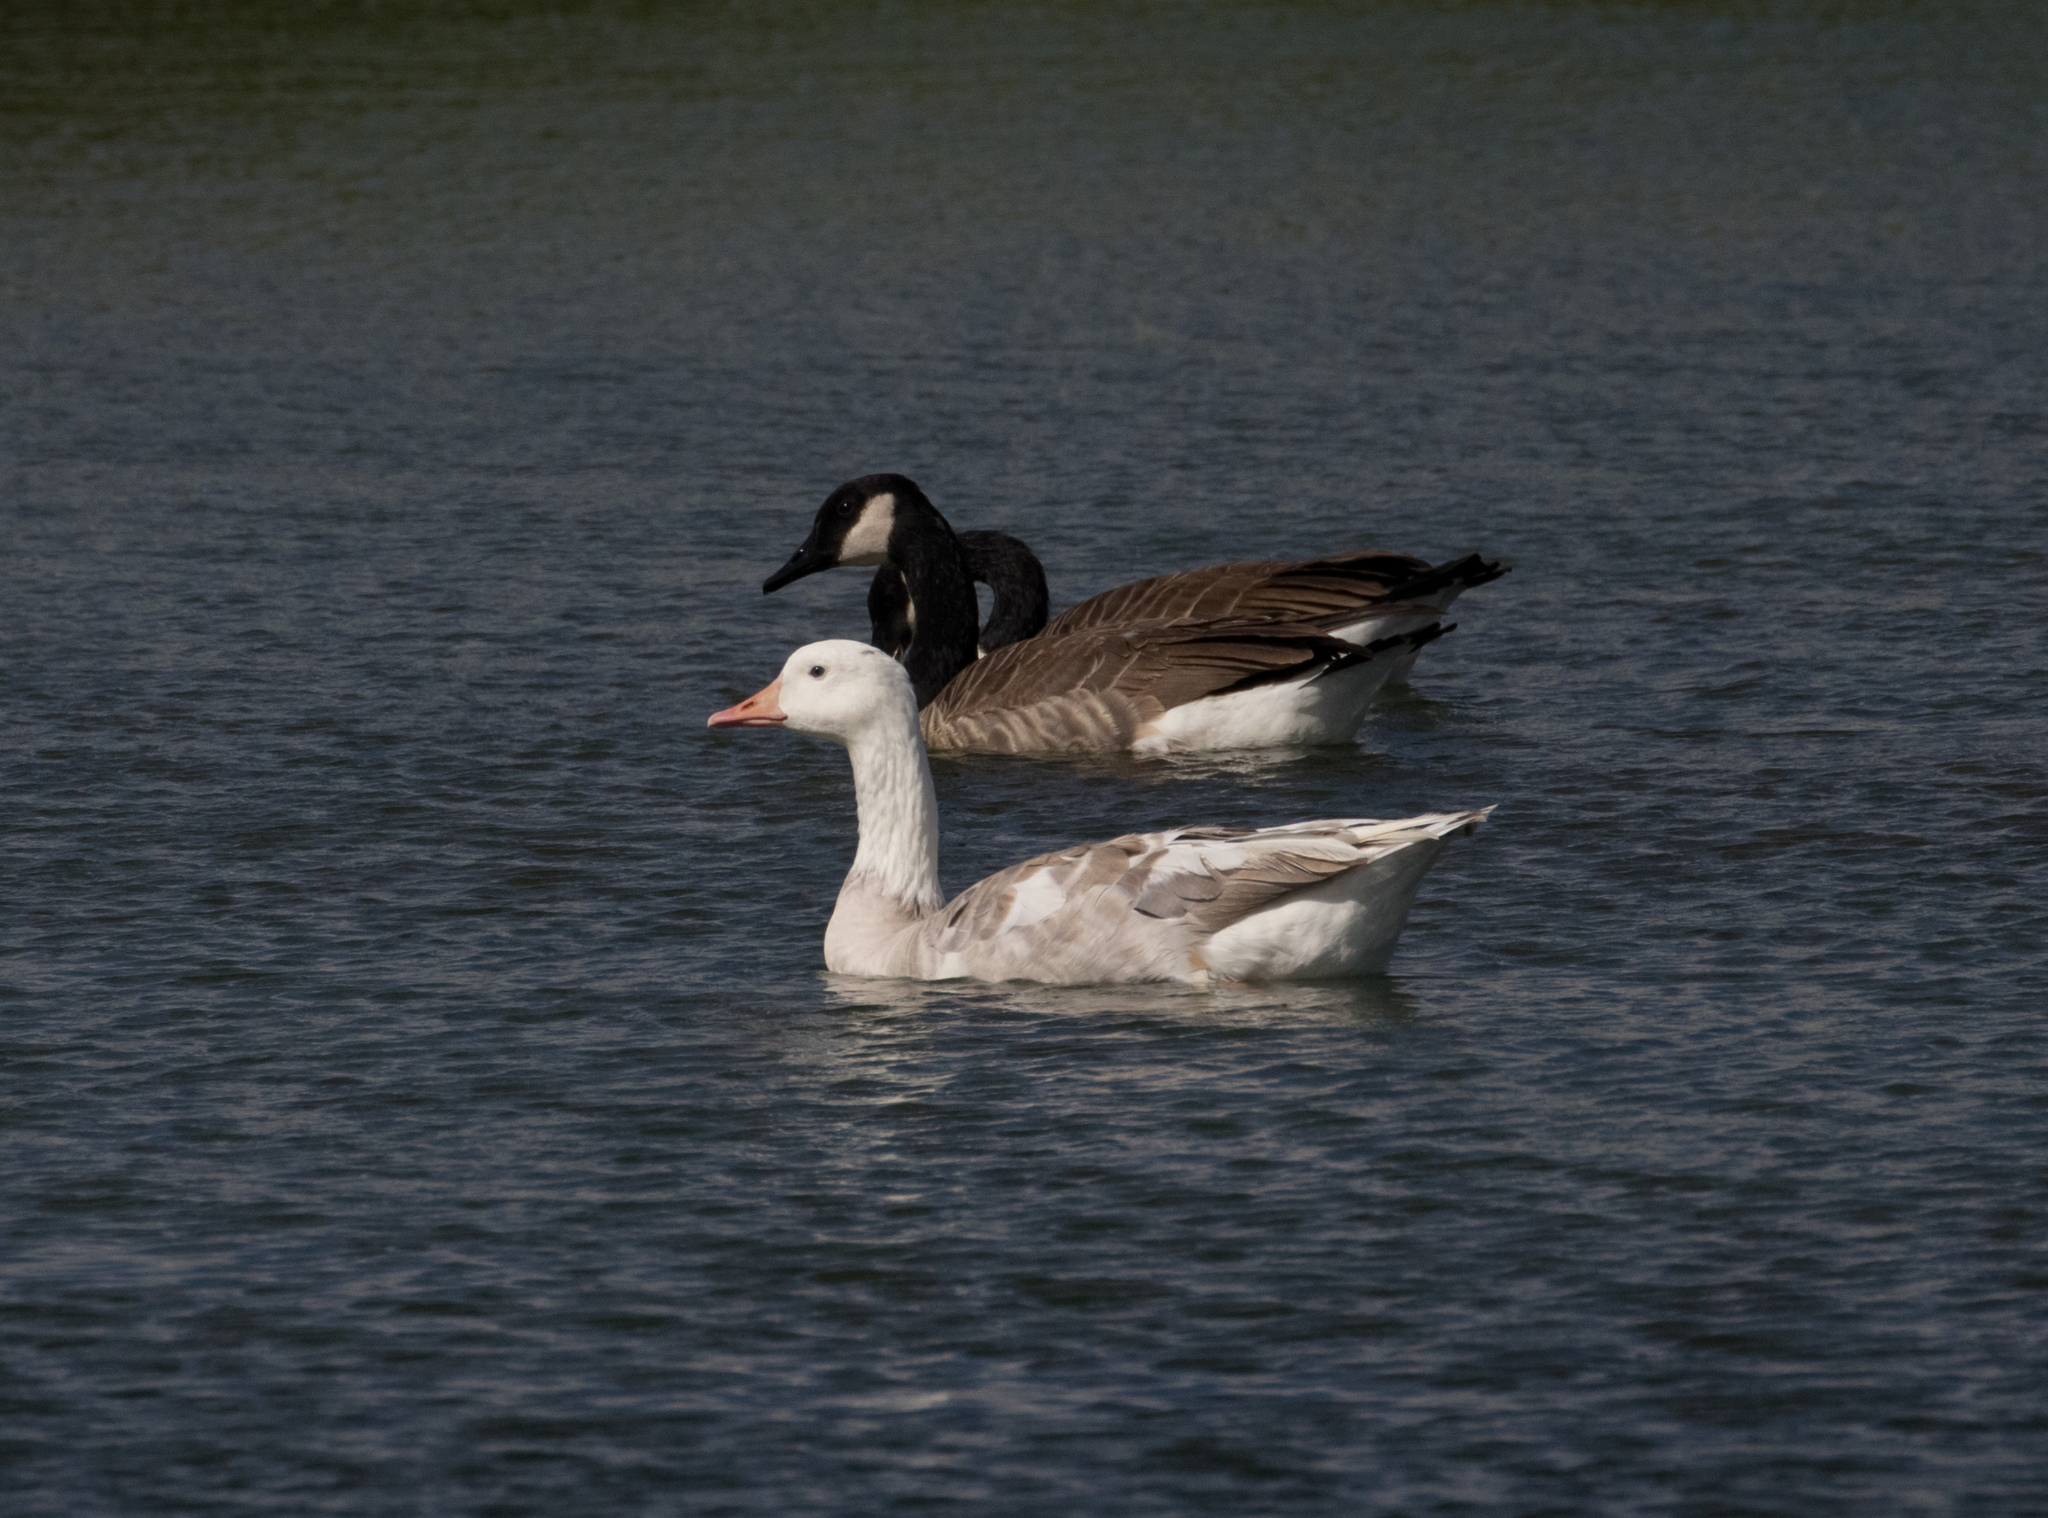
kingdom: Animalia
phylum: Chordata
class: Aves
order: Anseriformes
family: Anatidae
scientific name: Anatidae
